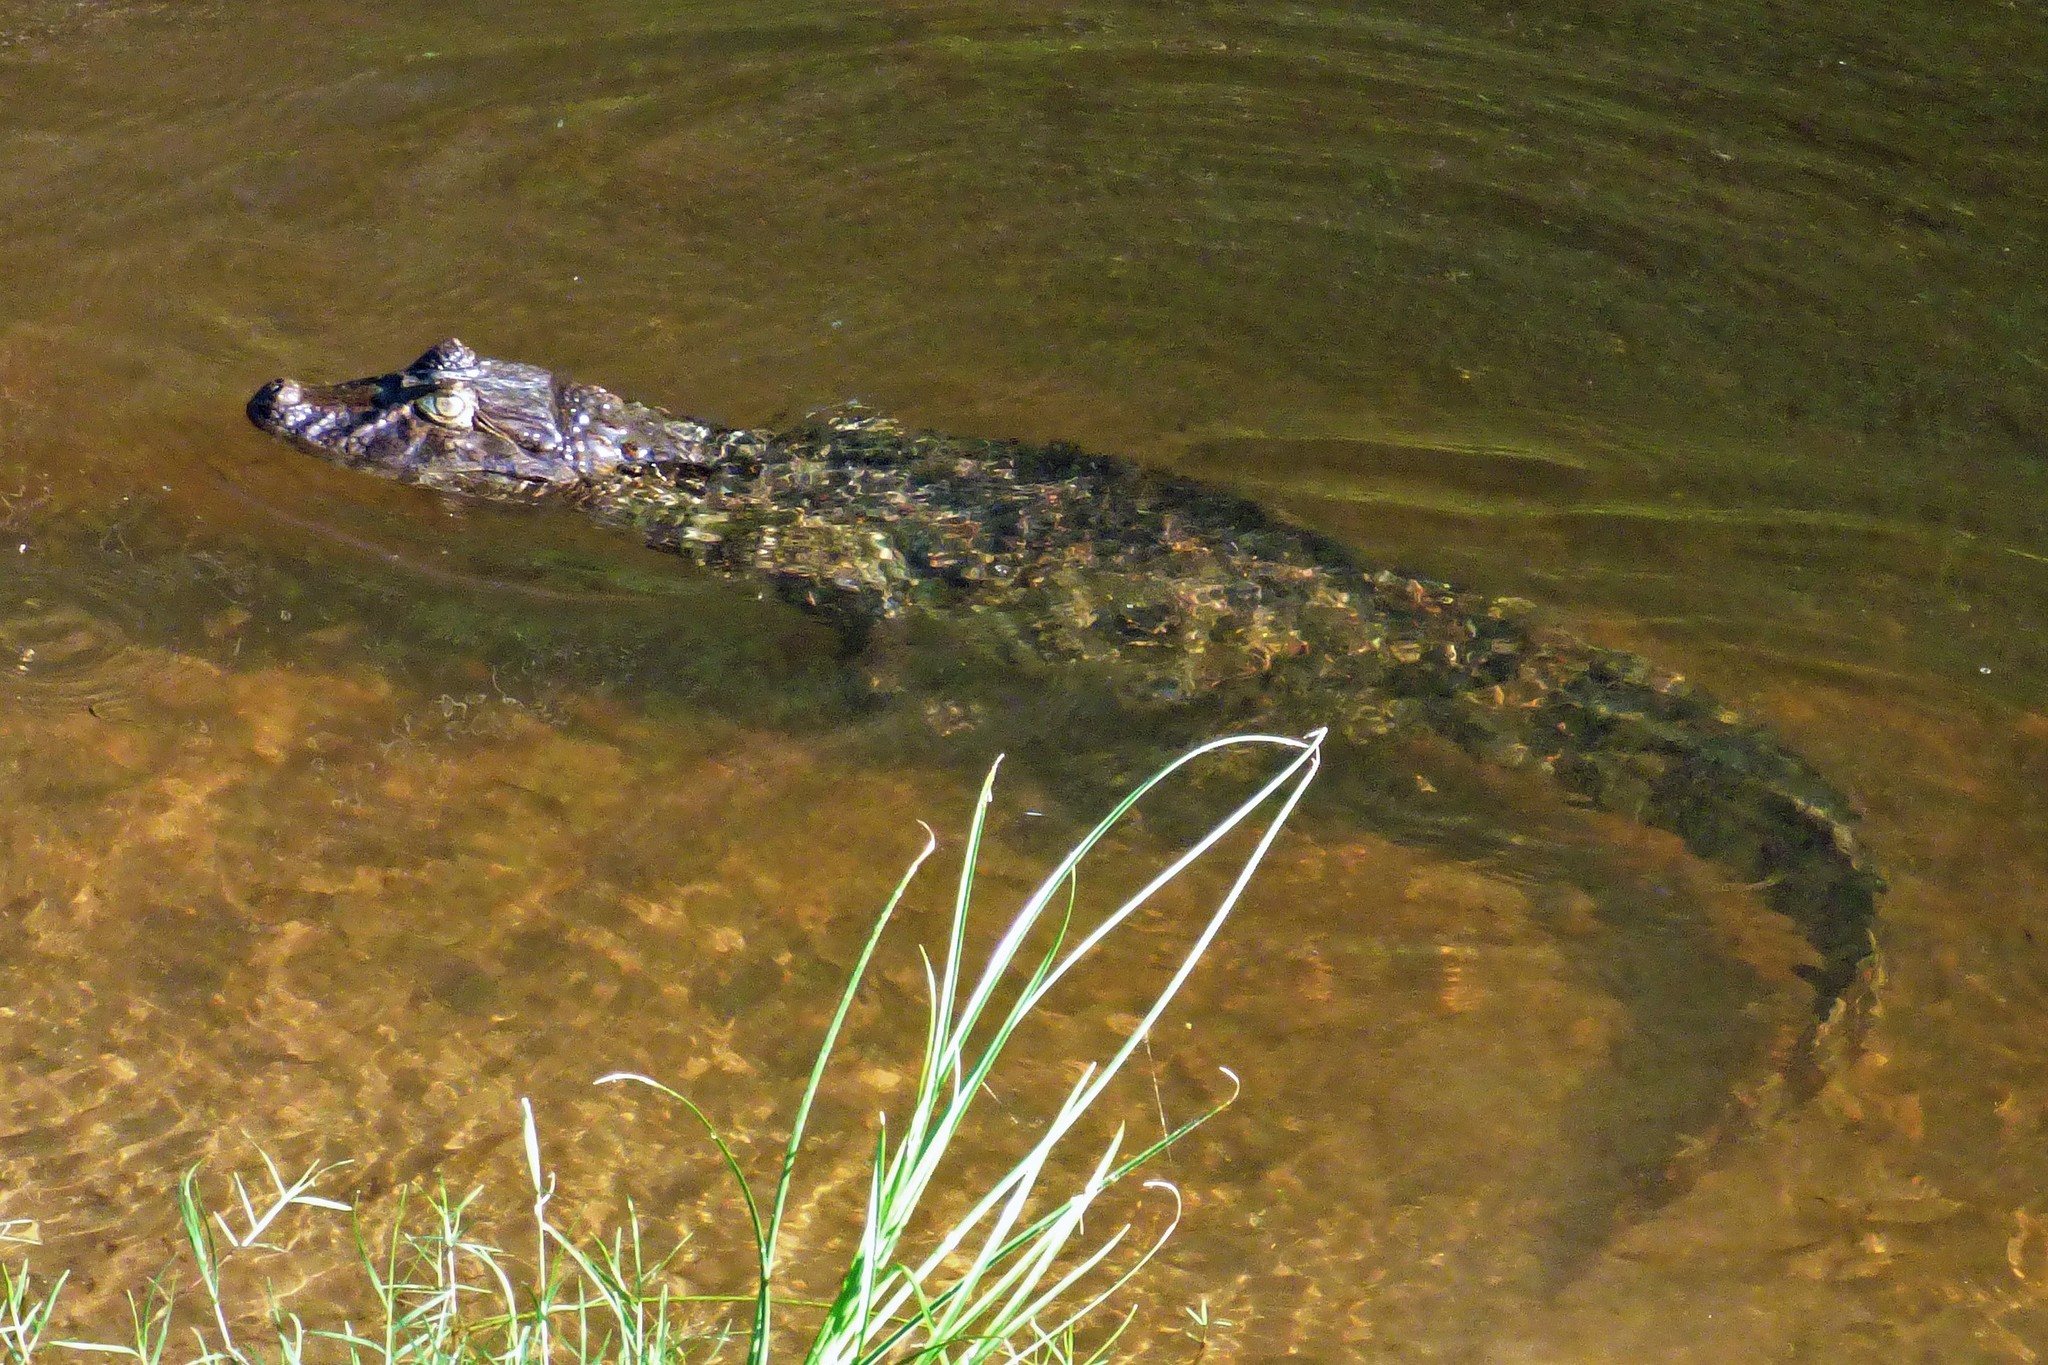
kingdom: Animalia
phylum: Chordata
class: Crocodylia
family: Alligatoridae
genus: Caiman
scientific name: Caiman latirostris
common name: Broad-snouted caiman
